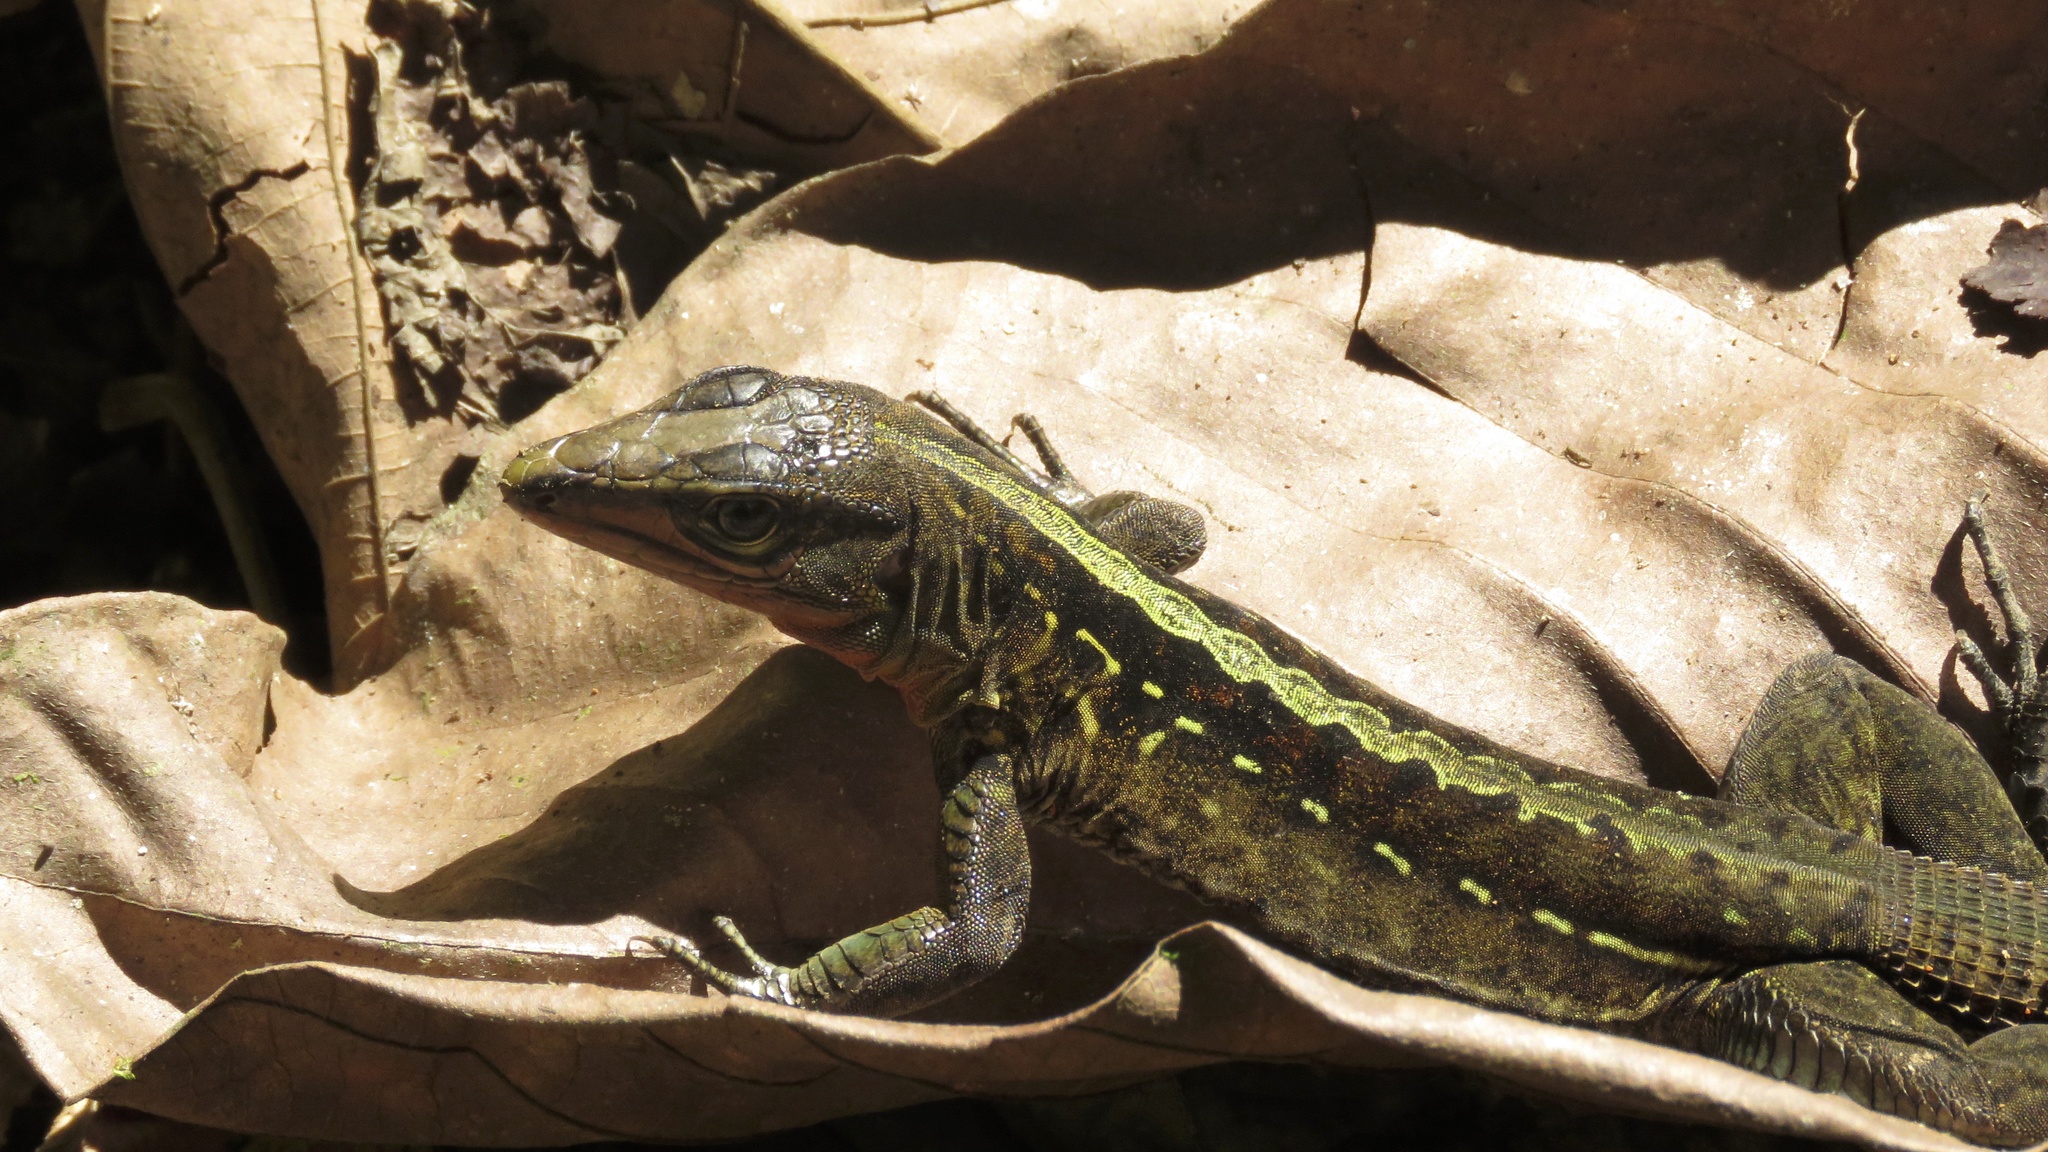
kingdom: Animalia
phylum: Chordata
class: Squamata
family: Teiidae
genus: Holcosus
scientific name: Holcosus festivus
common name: Middle american ameiva
